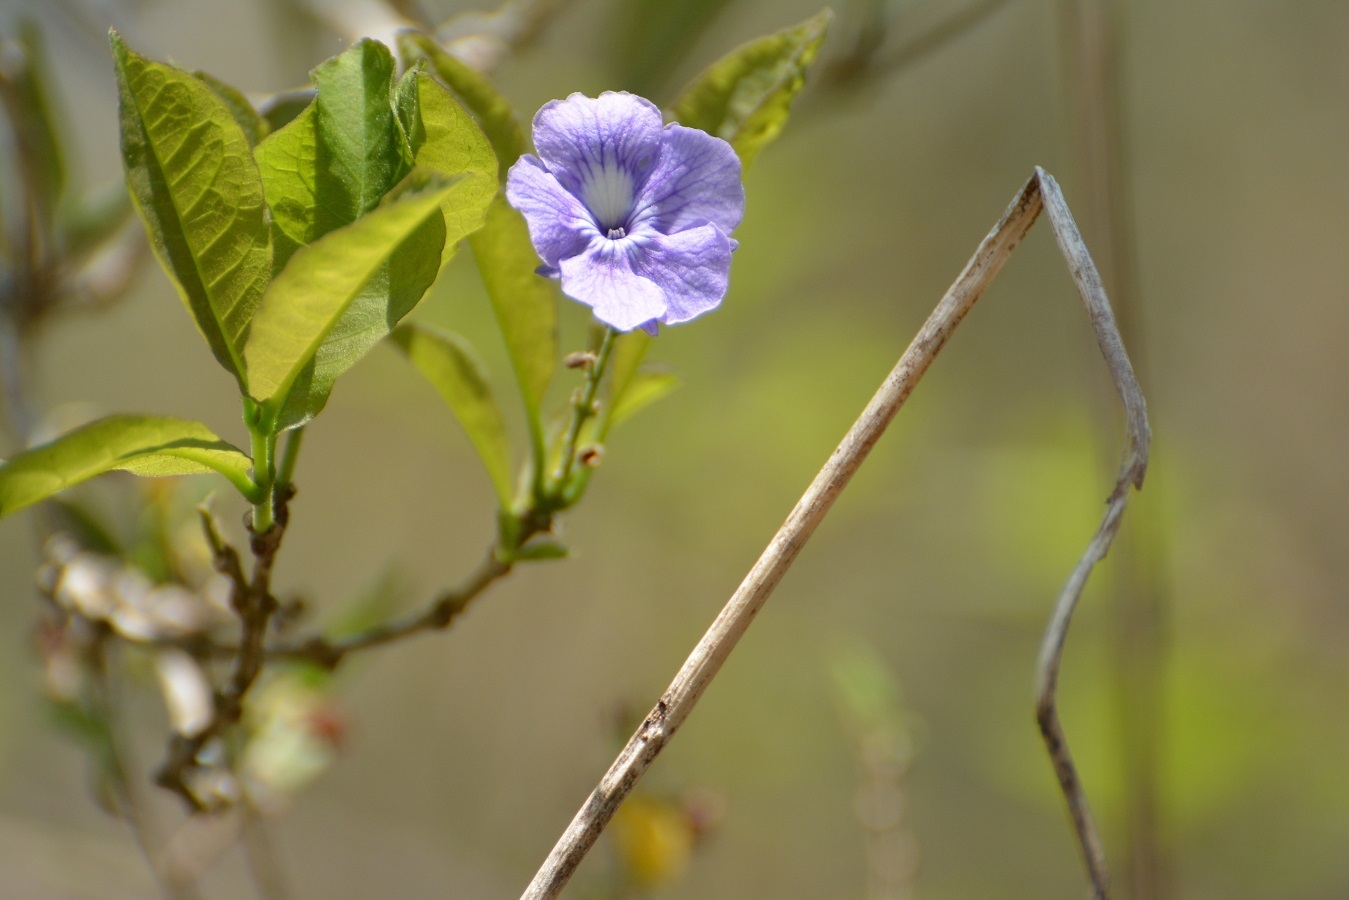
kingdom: Plantae
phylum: Tracheophyta
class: Magnoliopsida
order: Lamiales
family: Verbenaceae
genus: Duranta
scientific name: Duranta costaricensis
